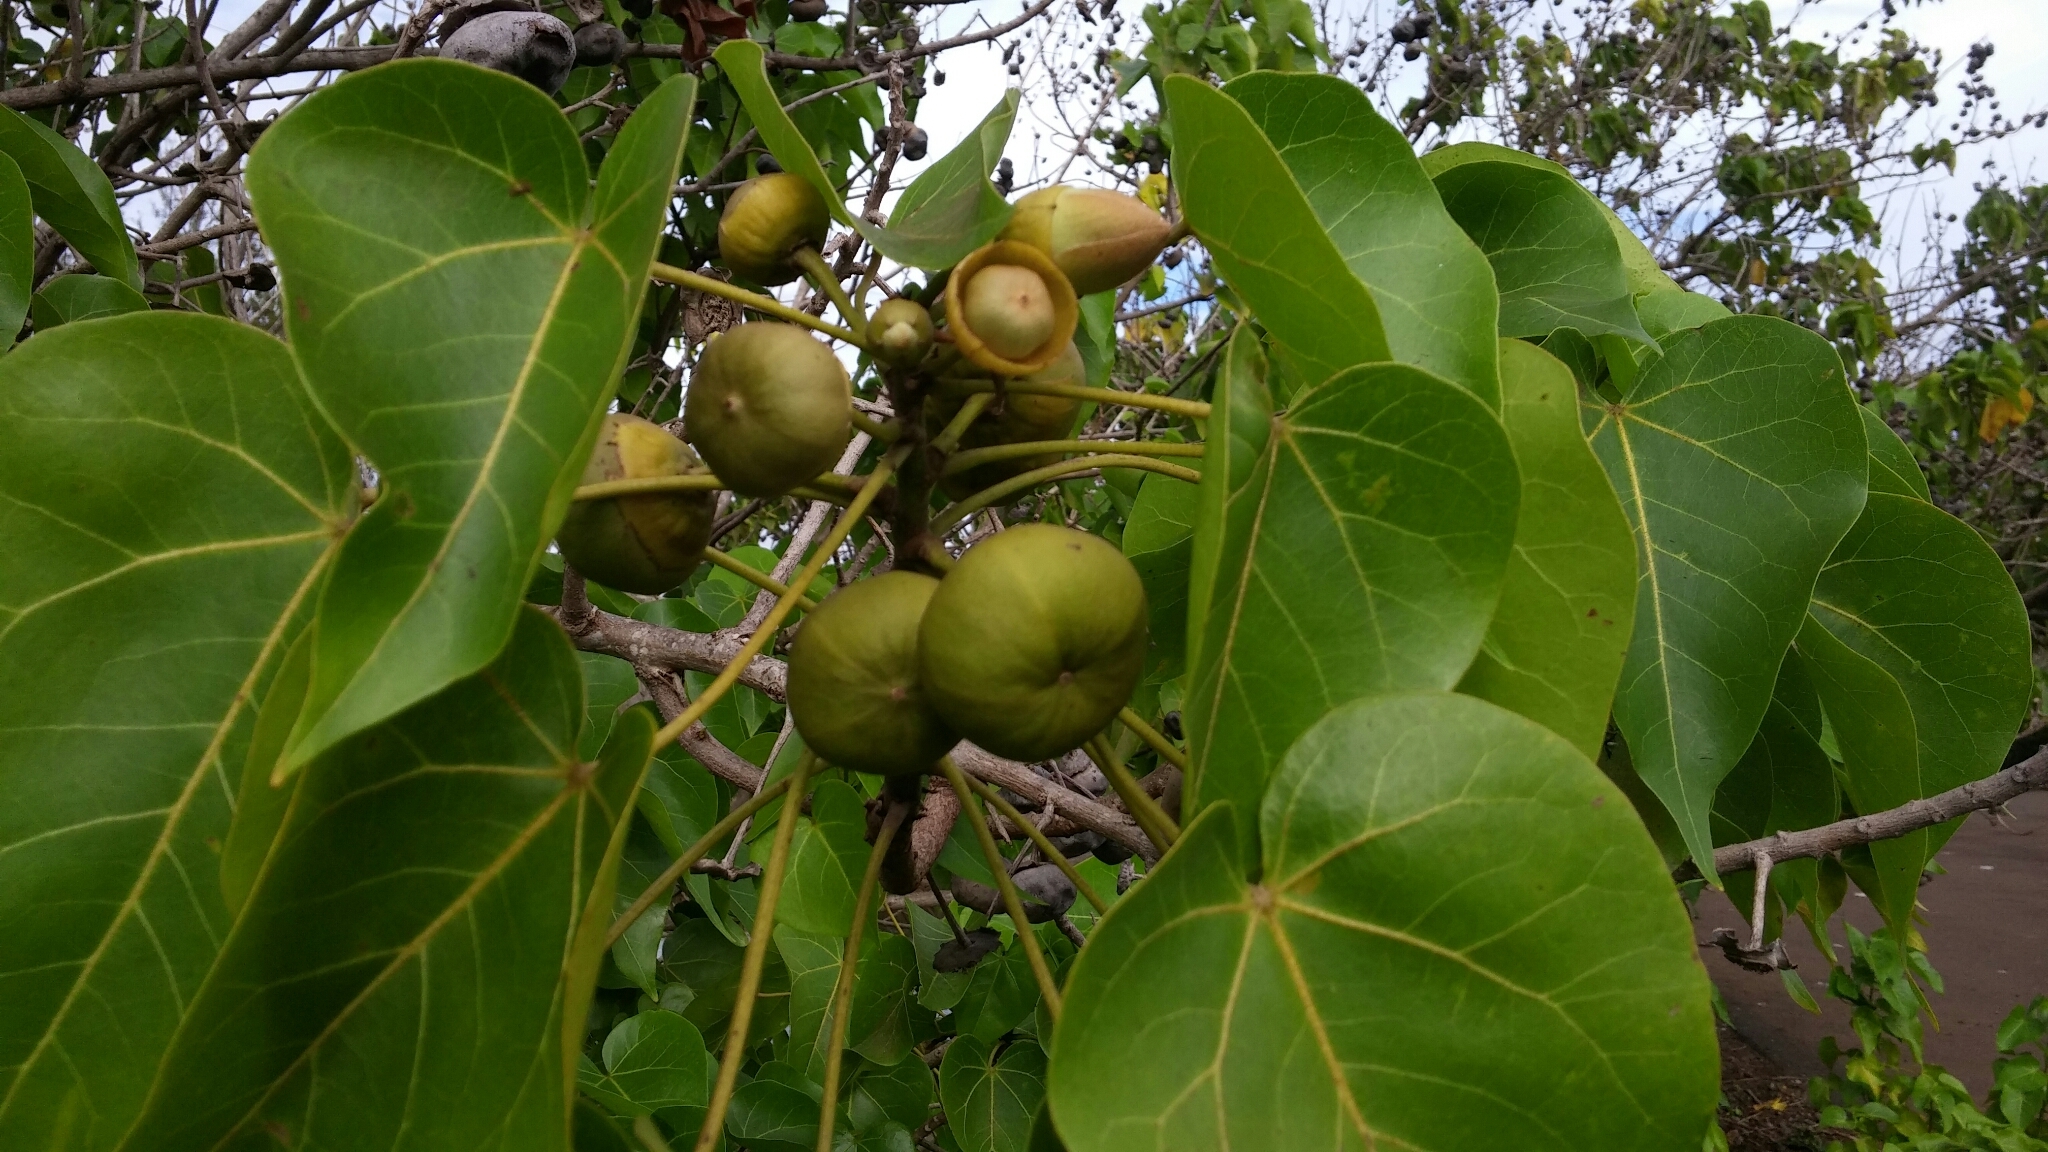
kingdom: Plantae
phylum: Tracheophyta
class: Magnoliopsida
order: Malvales
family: Malvaceae
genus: Thespesia
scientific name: Thespesia populnea
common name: Seaside mahoe
